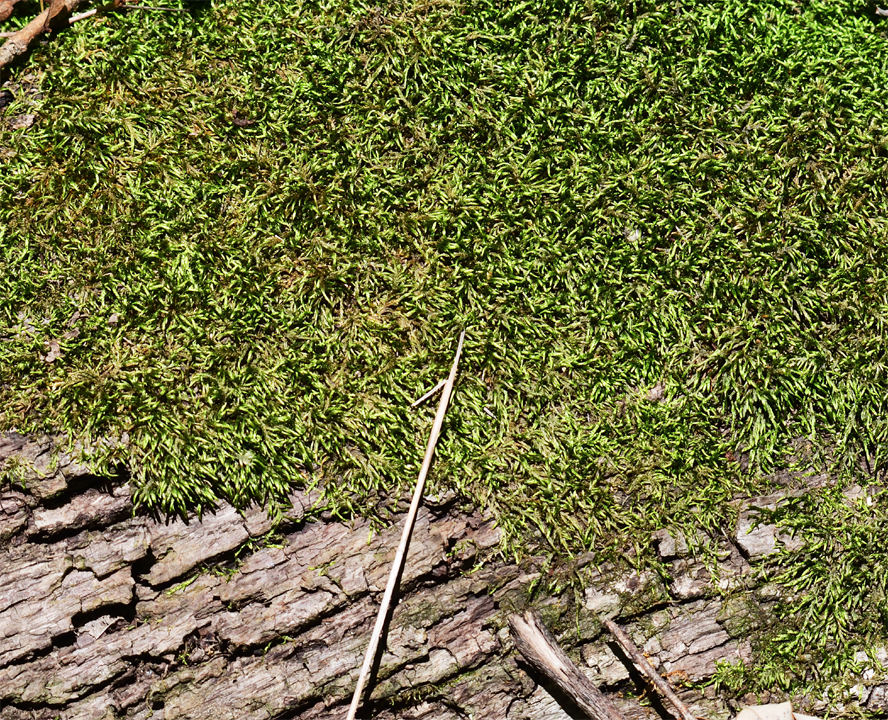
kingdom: Plantae
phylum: Bryophyta
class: Bryopsida
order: Hypnales
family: Entodontaceae
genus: Entodon
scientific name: Entodon seductrix
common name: Round-stemmed entodon moss
